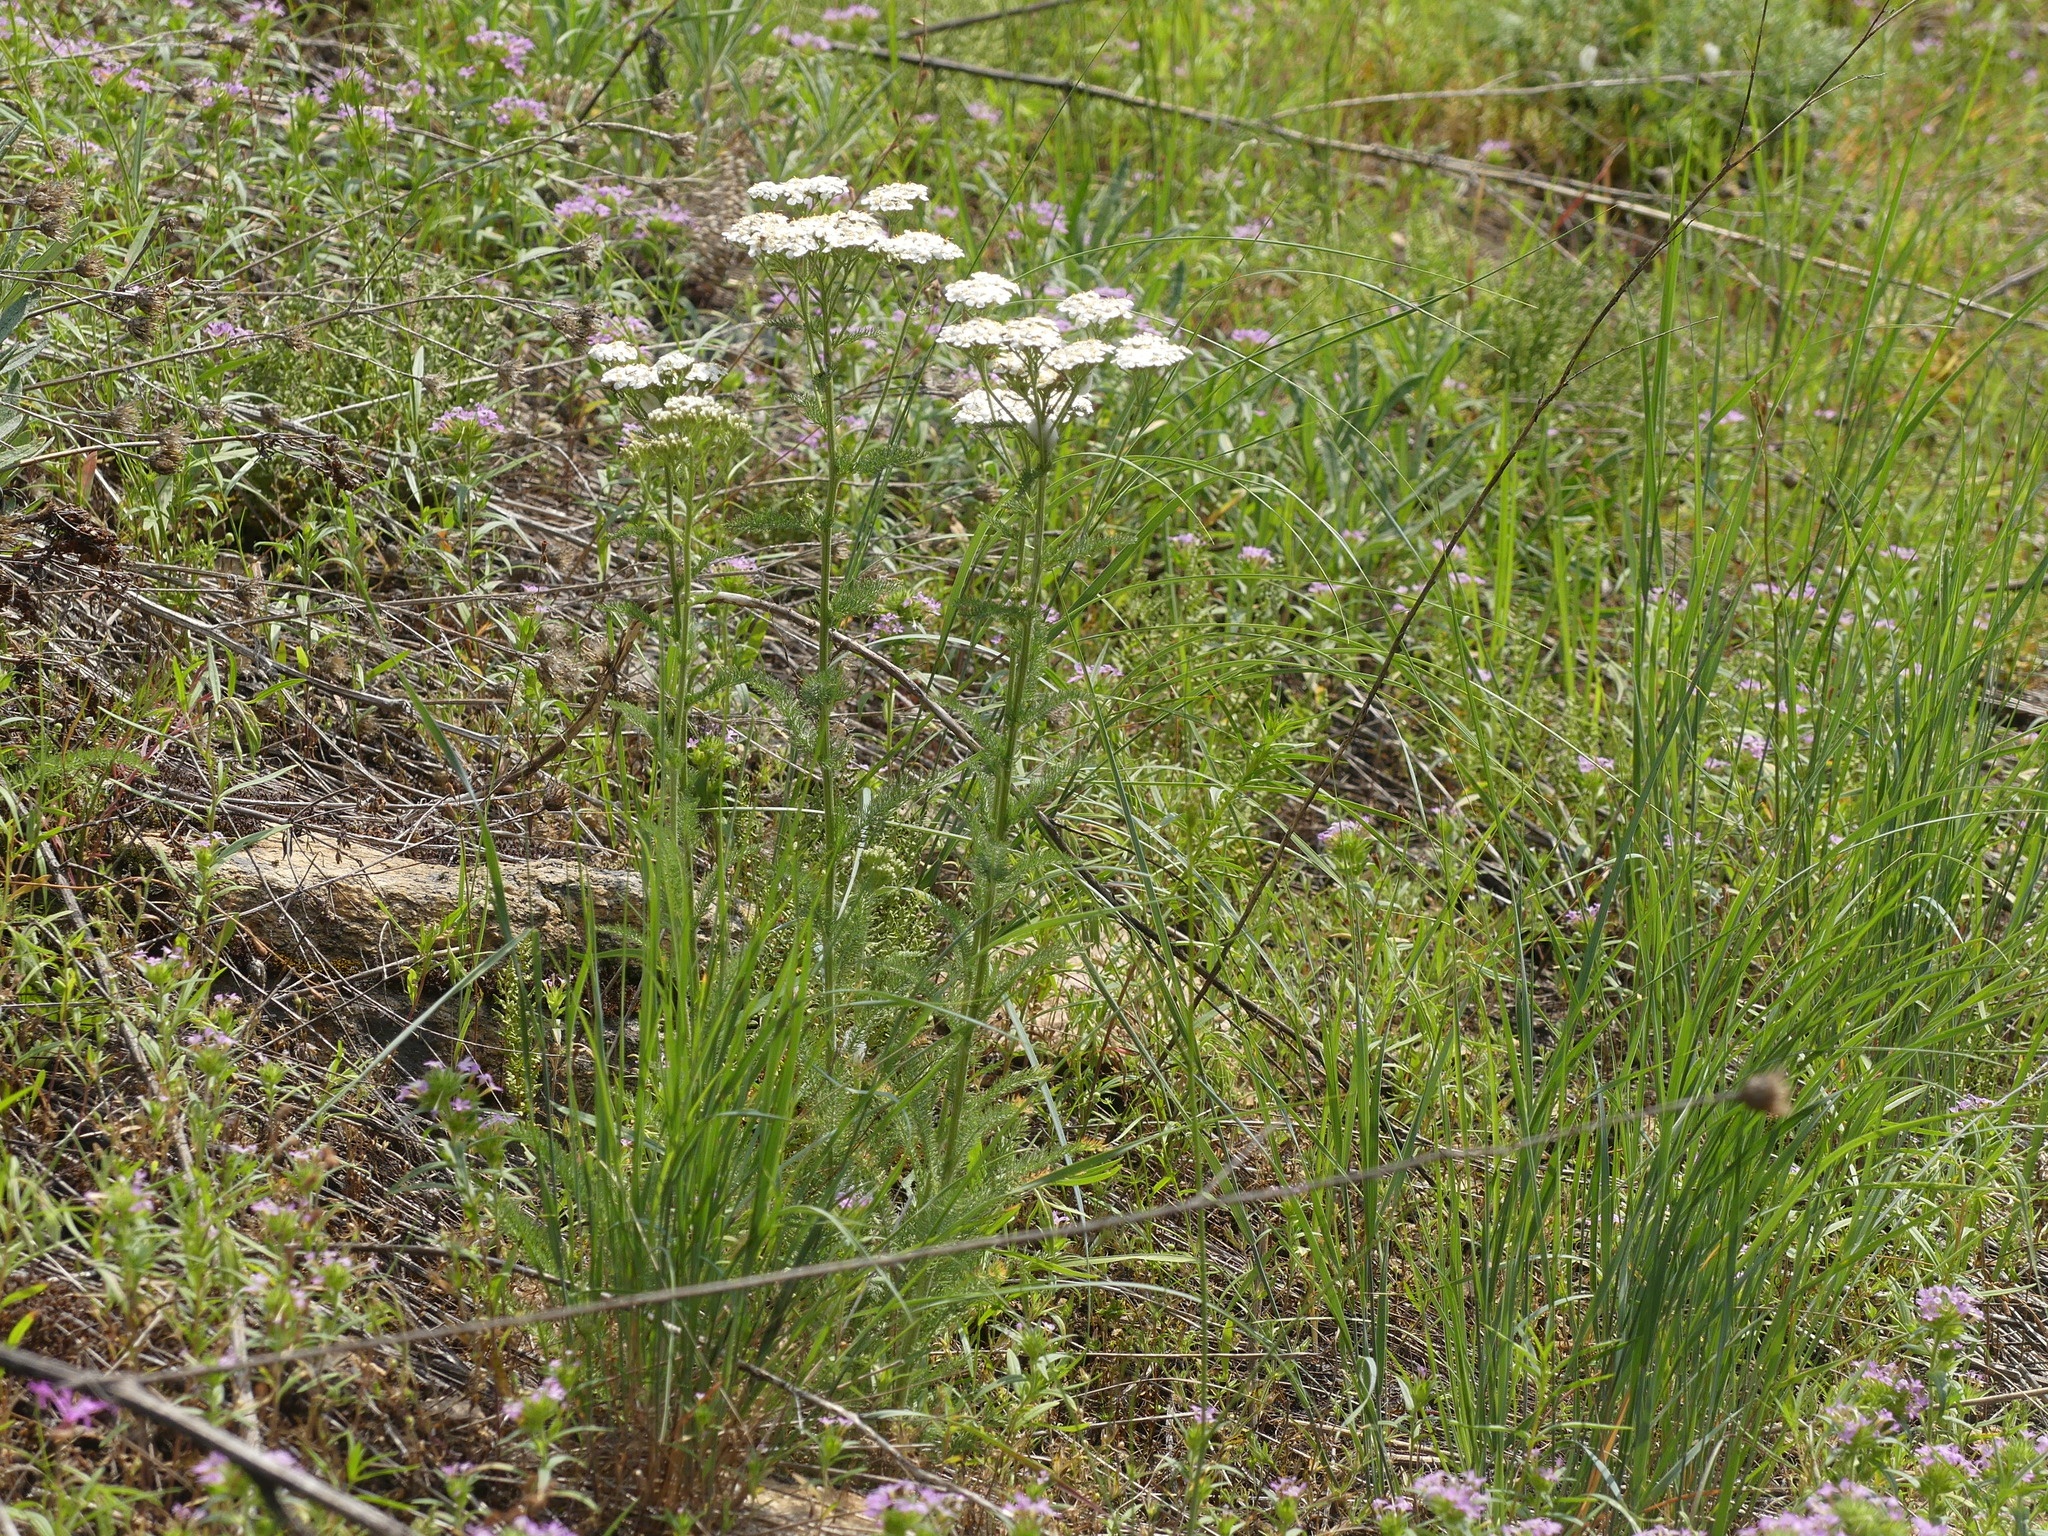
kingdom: Plantae
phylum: Tracheophyta
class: Magnoliopsida
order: Asterales
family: Asteraceae
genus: Achillea
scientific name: Achillea millefolium
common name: Yarrow
